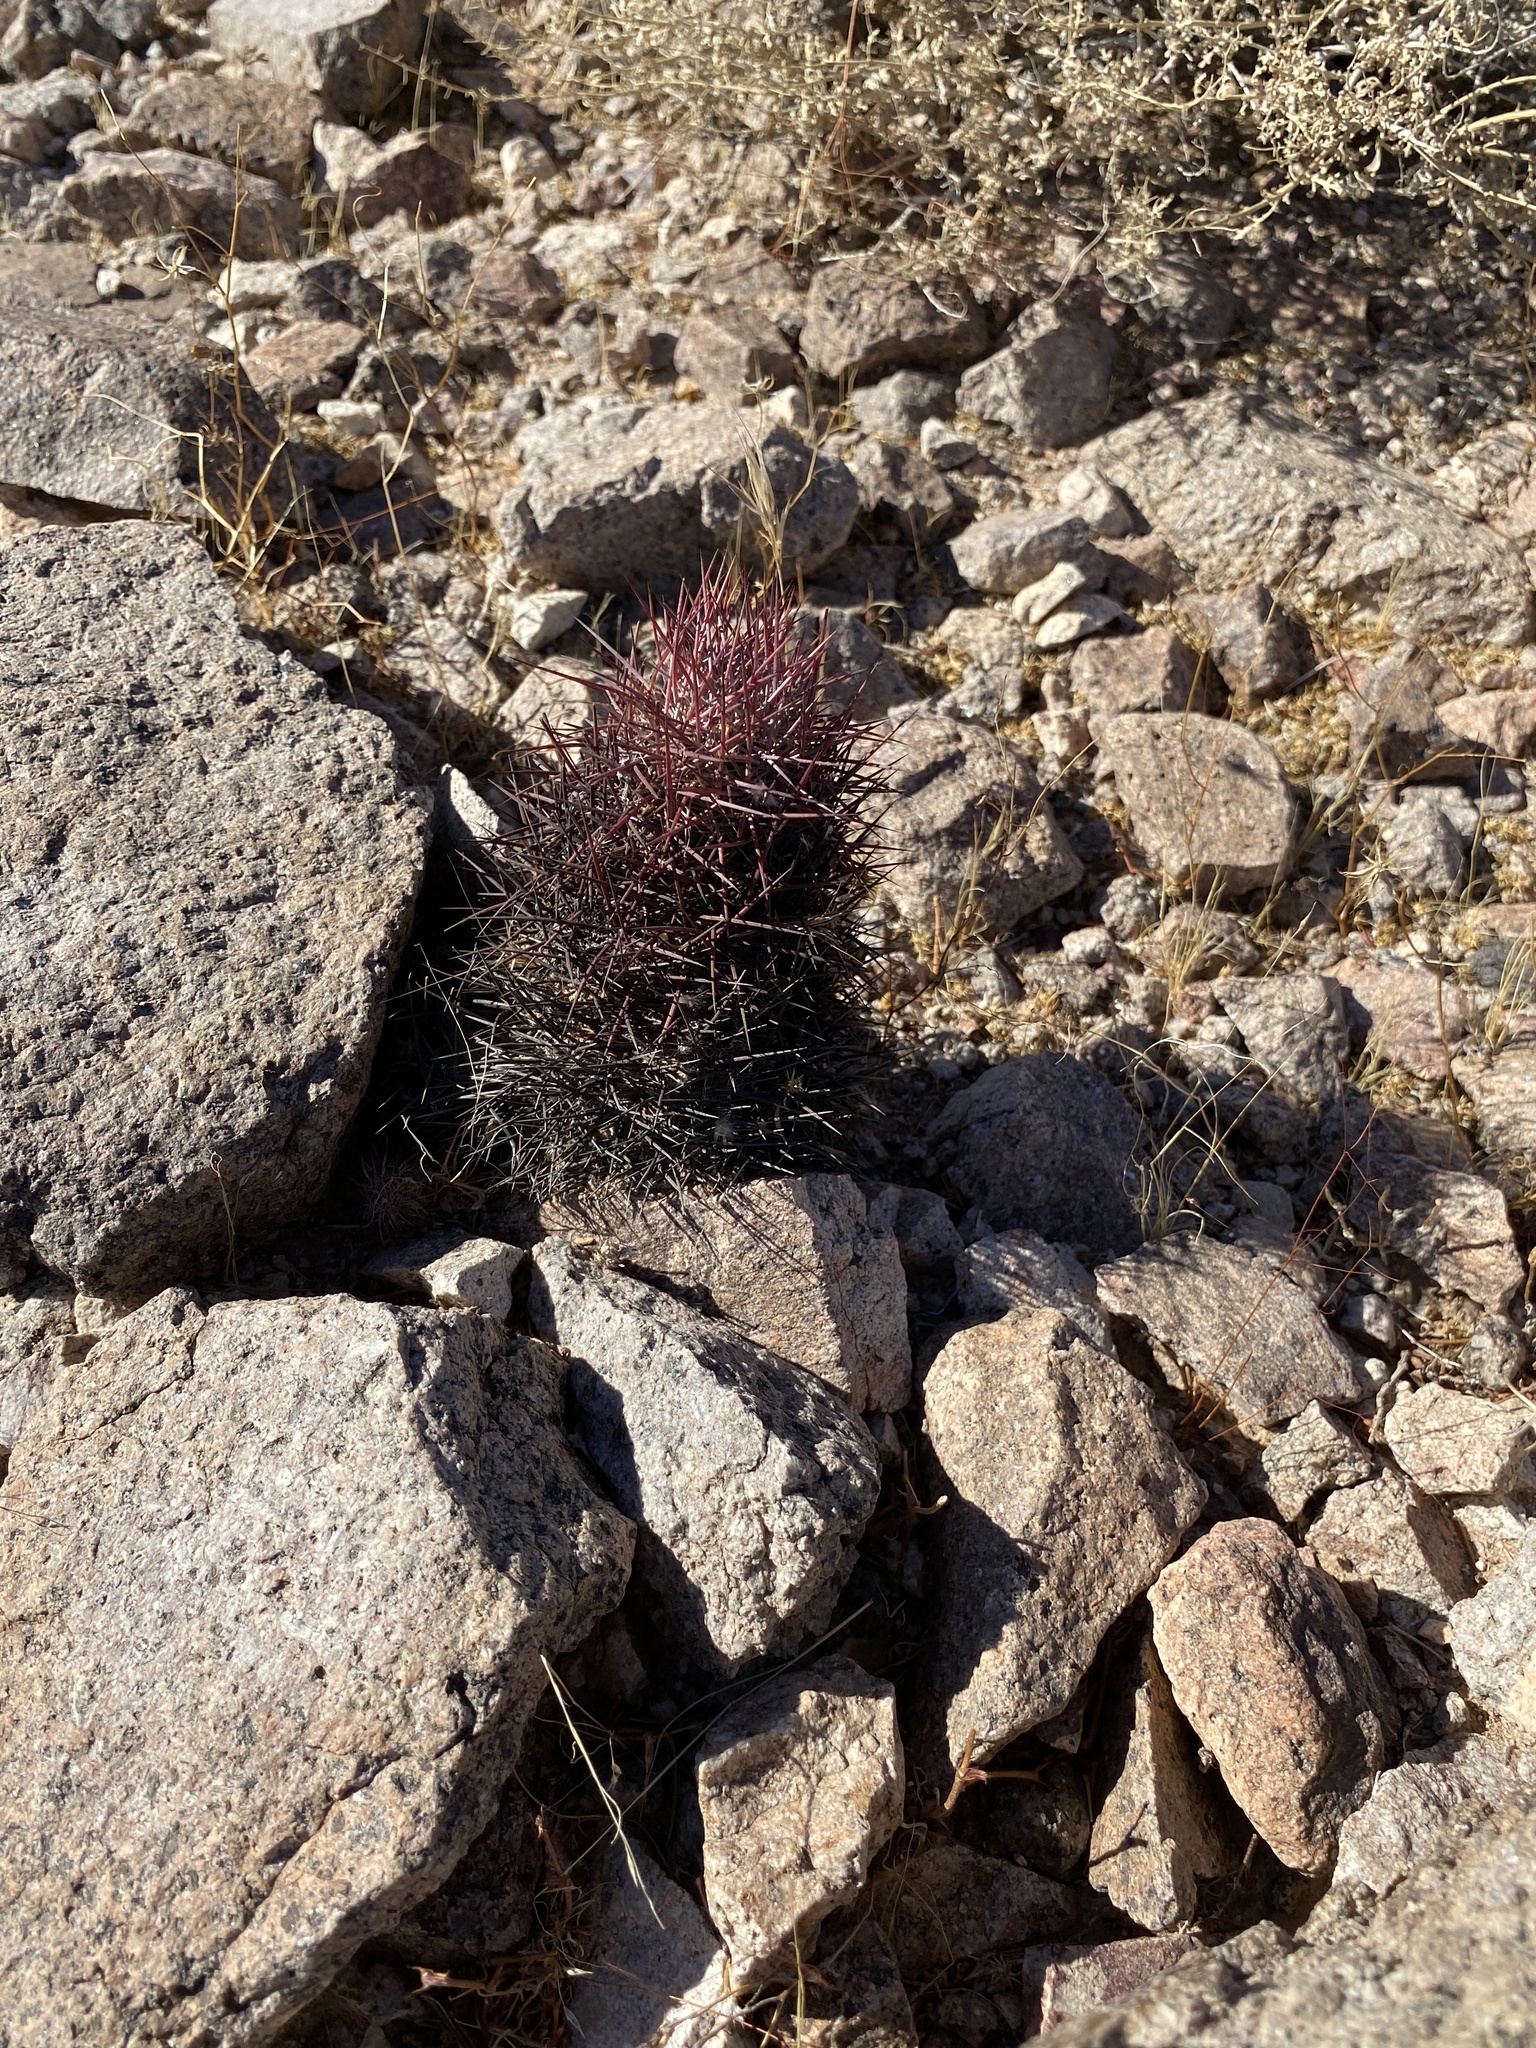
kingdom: Plantae
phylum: Tracheophyta
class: Magnoliopsida
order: Caryophyllales
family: Cactaceae
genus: Sclerocactus
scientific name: Sclerocactus johnsonii
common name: Eight-spine fishhook cactus
